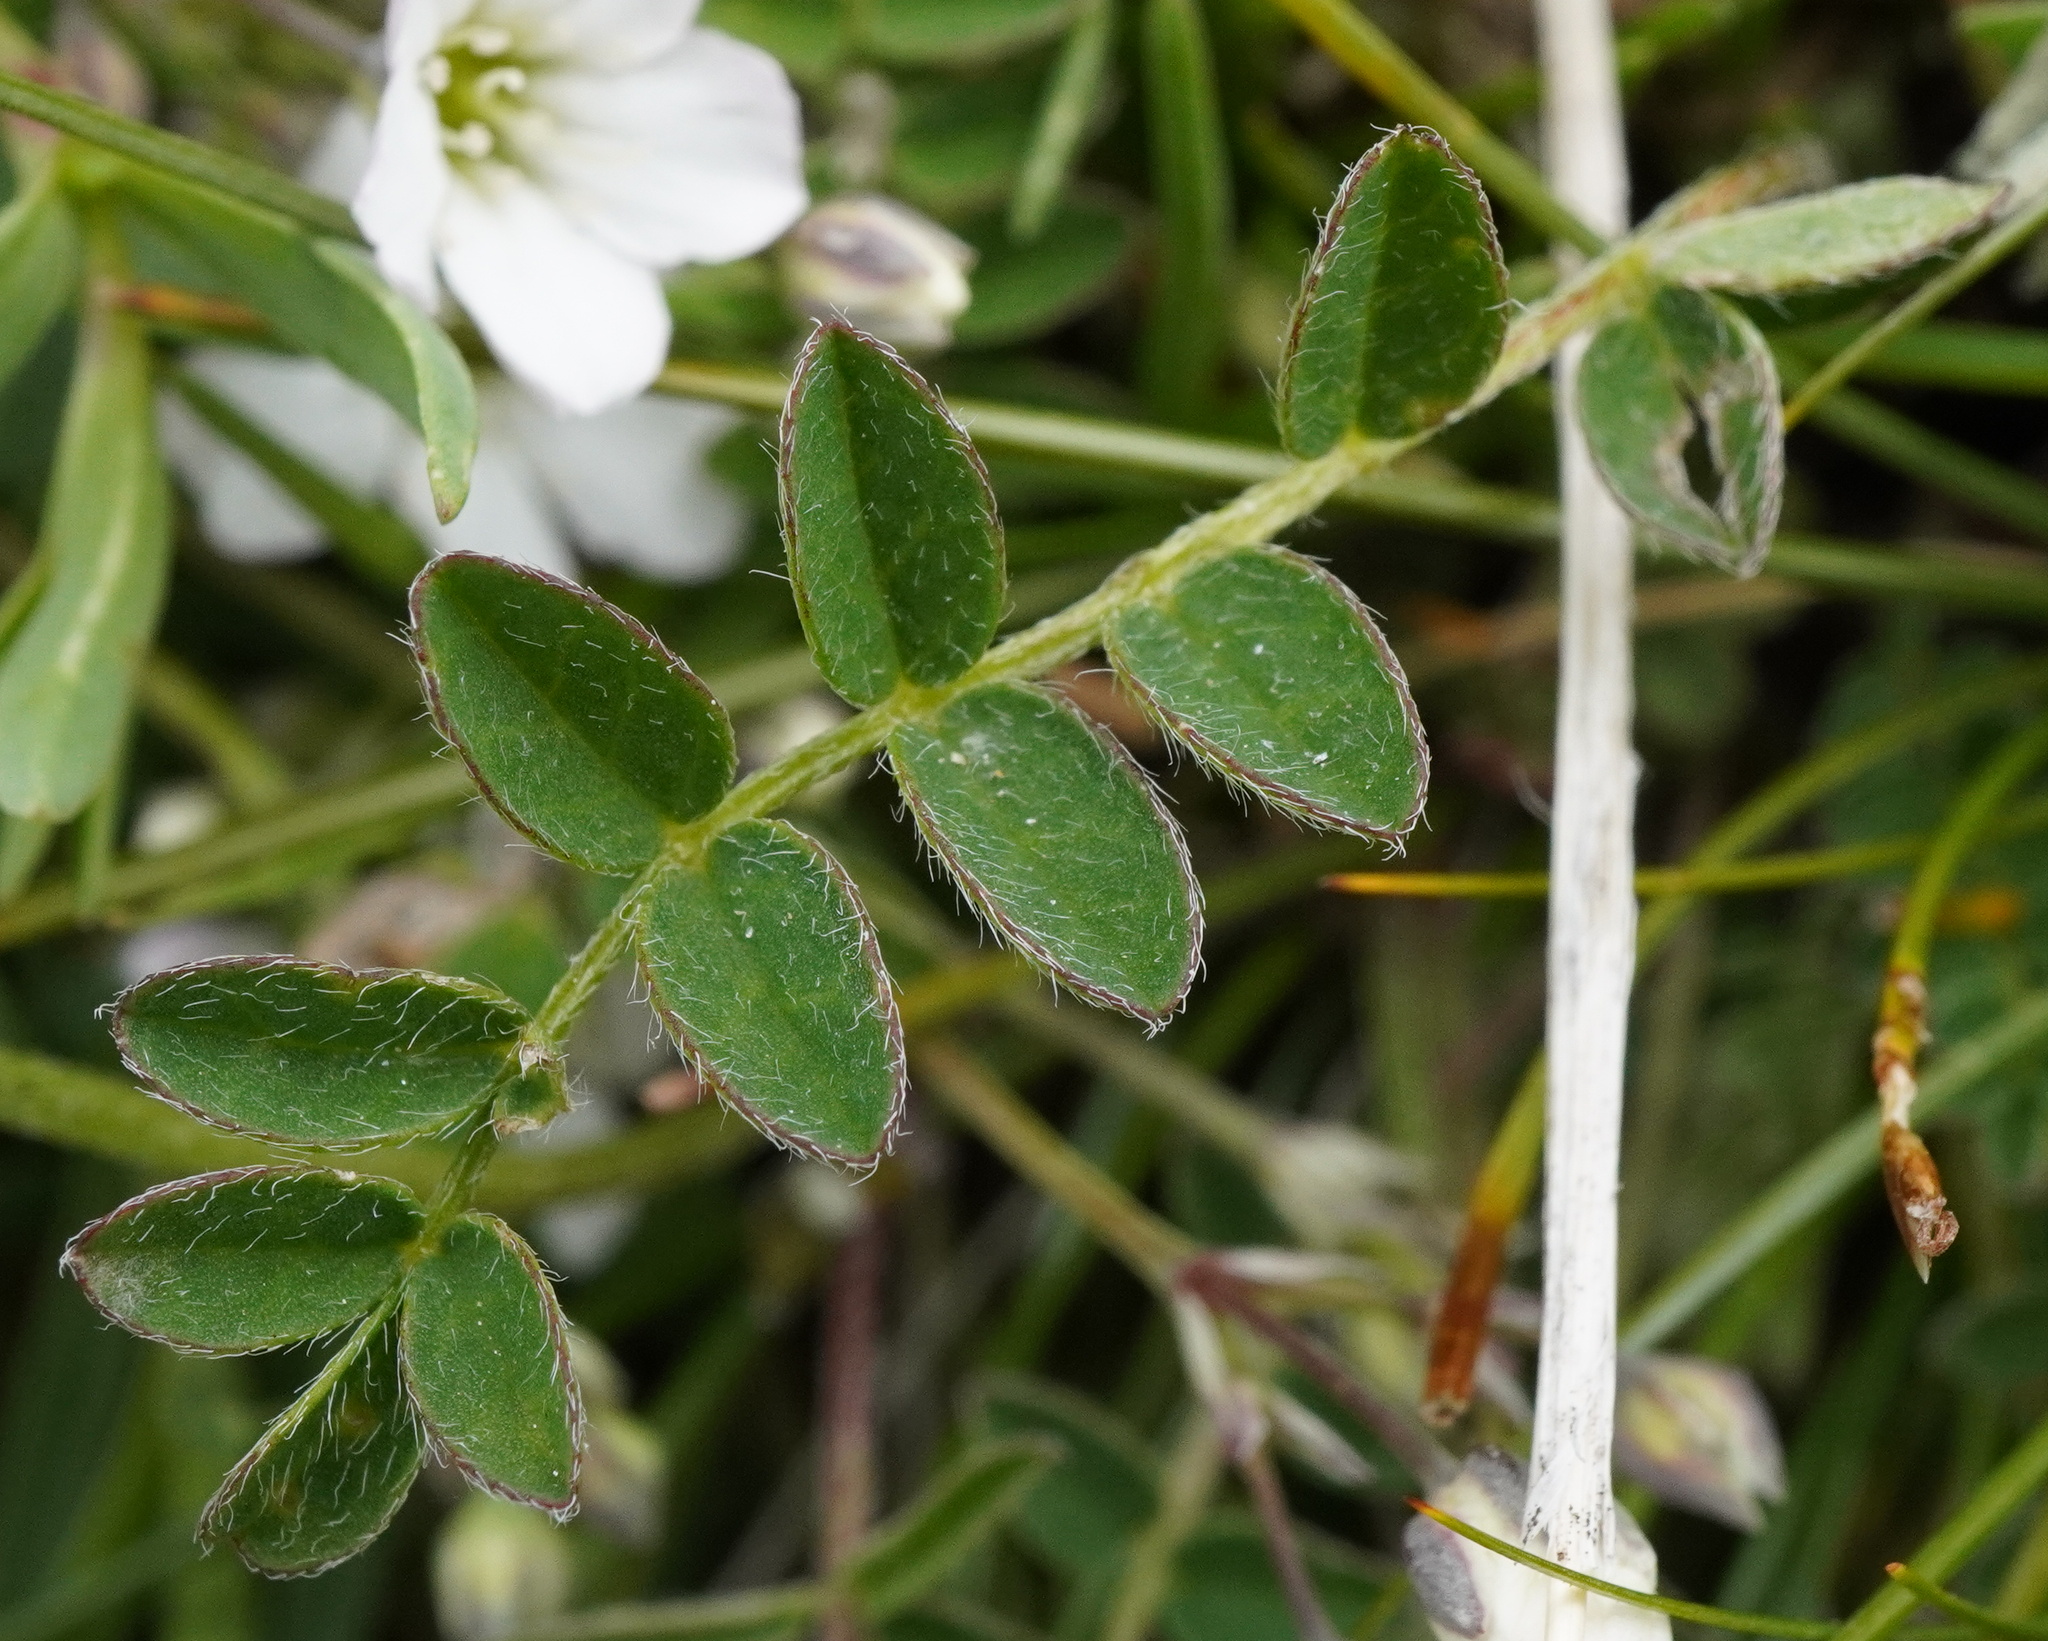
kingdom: Plantae
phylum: Tracheophyta
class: Magnoliopsida
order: Fabales
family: Fabaceae
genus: Astragalus
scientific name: Astragalus alpinus
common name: Alpine milk-vetch
